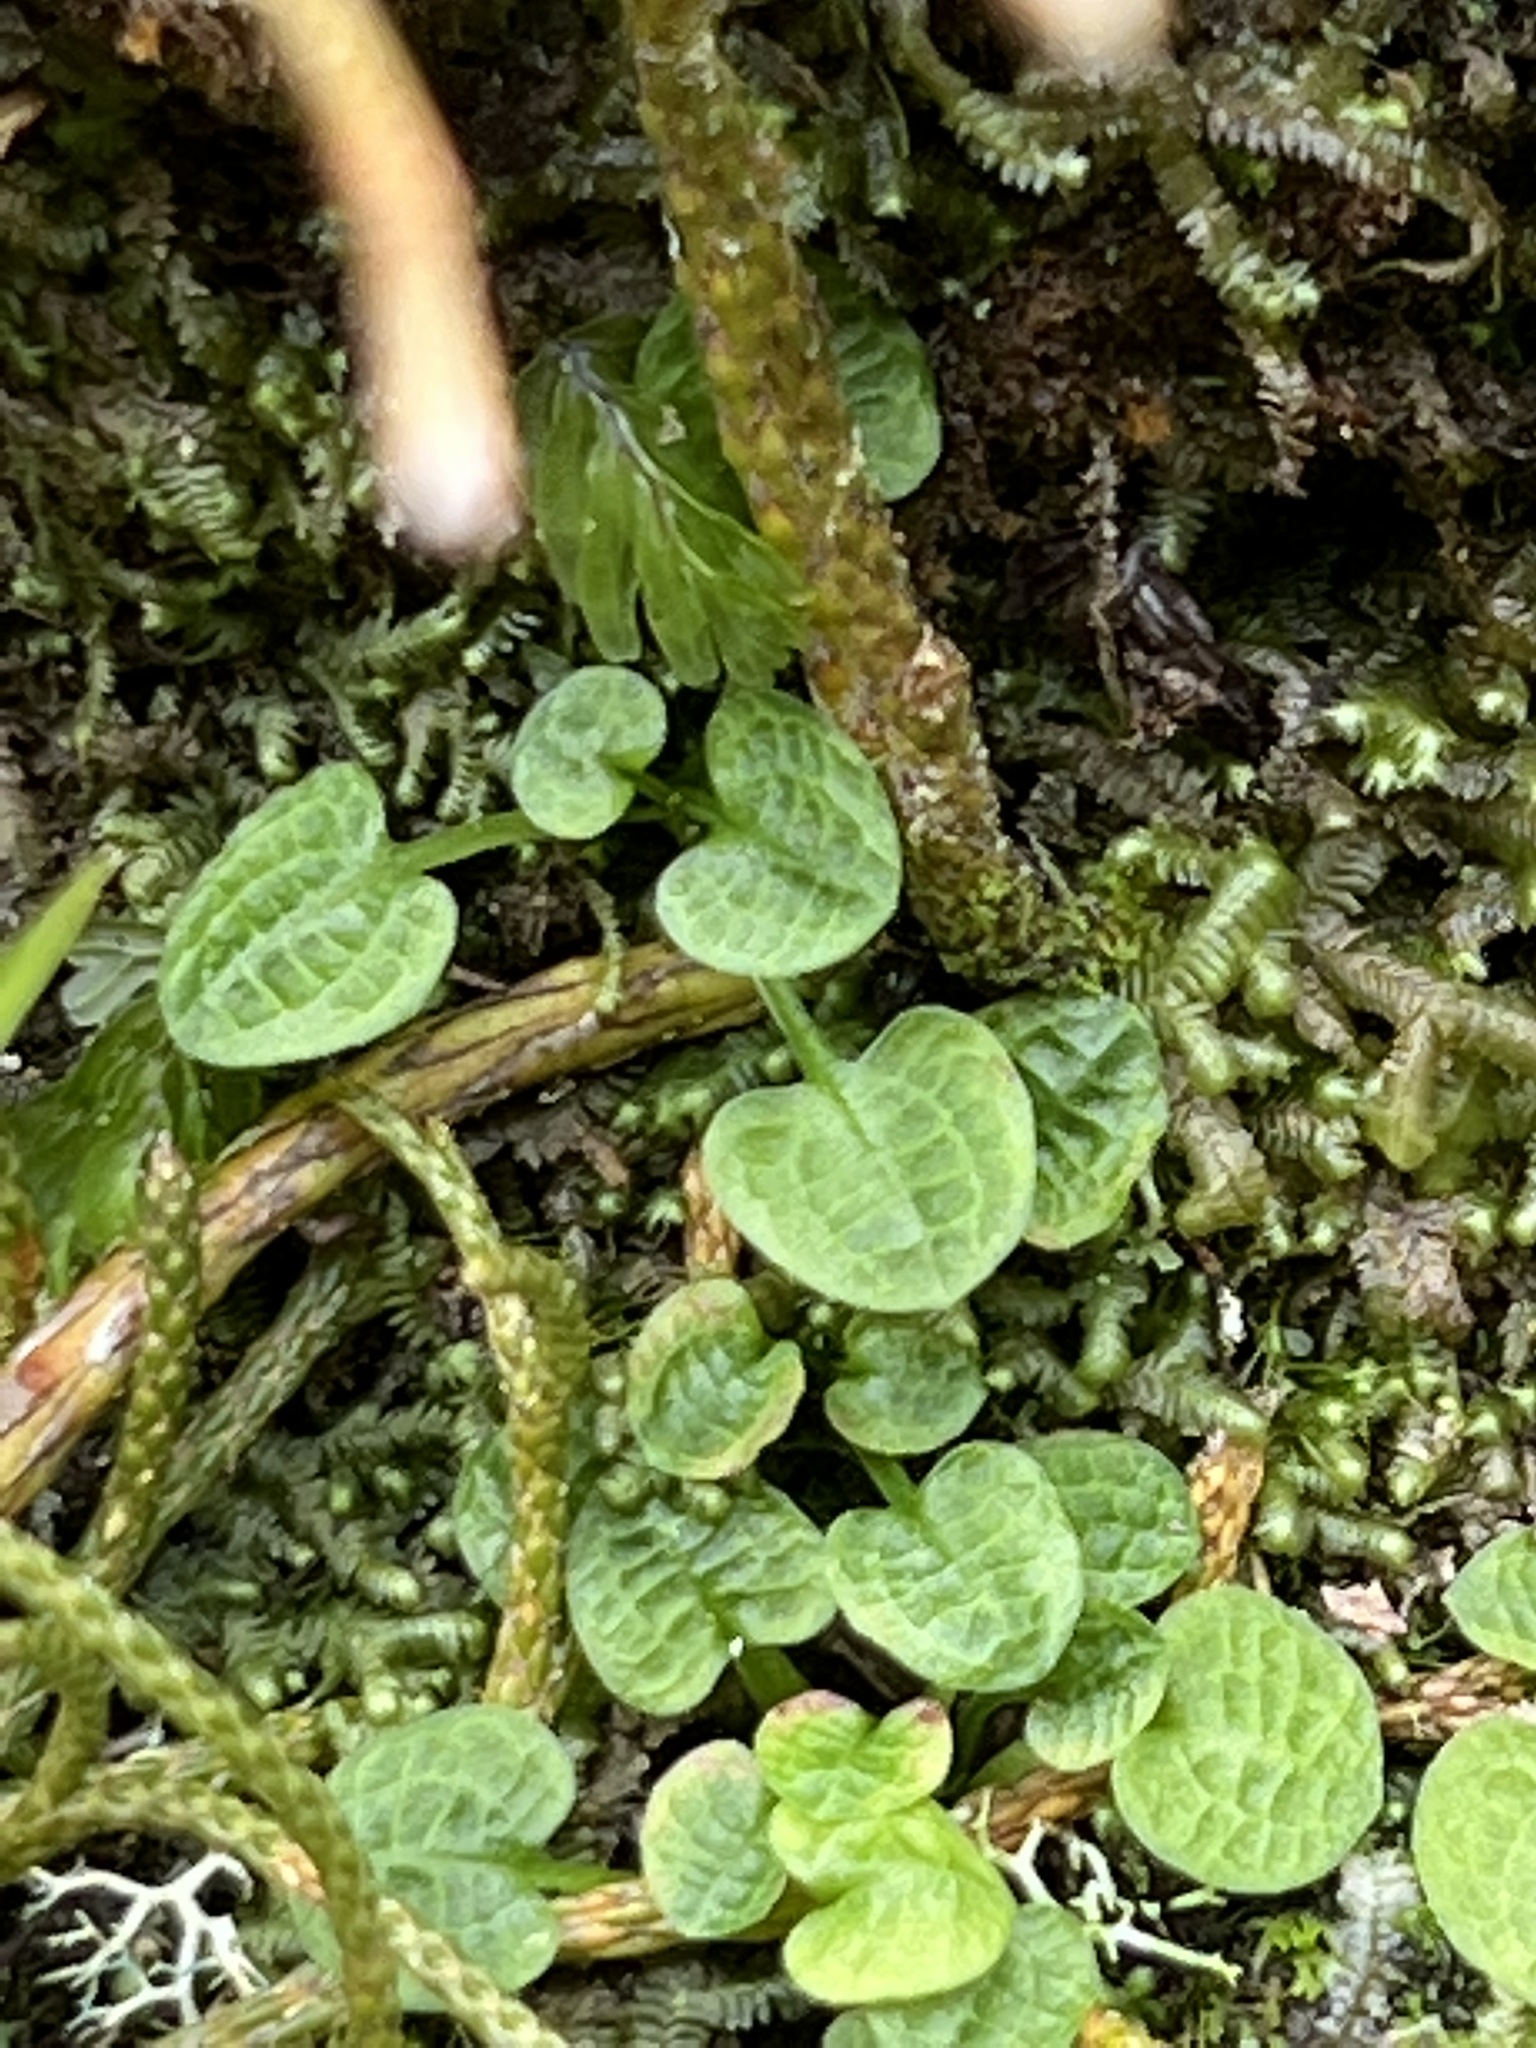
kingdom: Plantae
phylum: Tracheophyta
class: Liliopsida
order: Asparagales
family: Orchidaceae
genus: Pterostylis
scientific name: Pterostylis trullifolia
